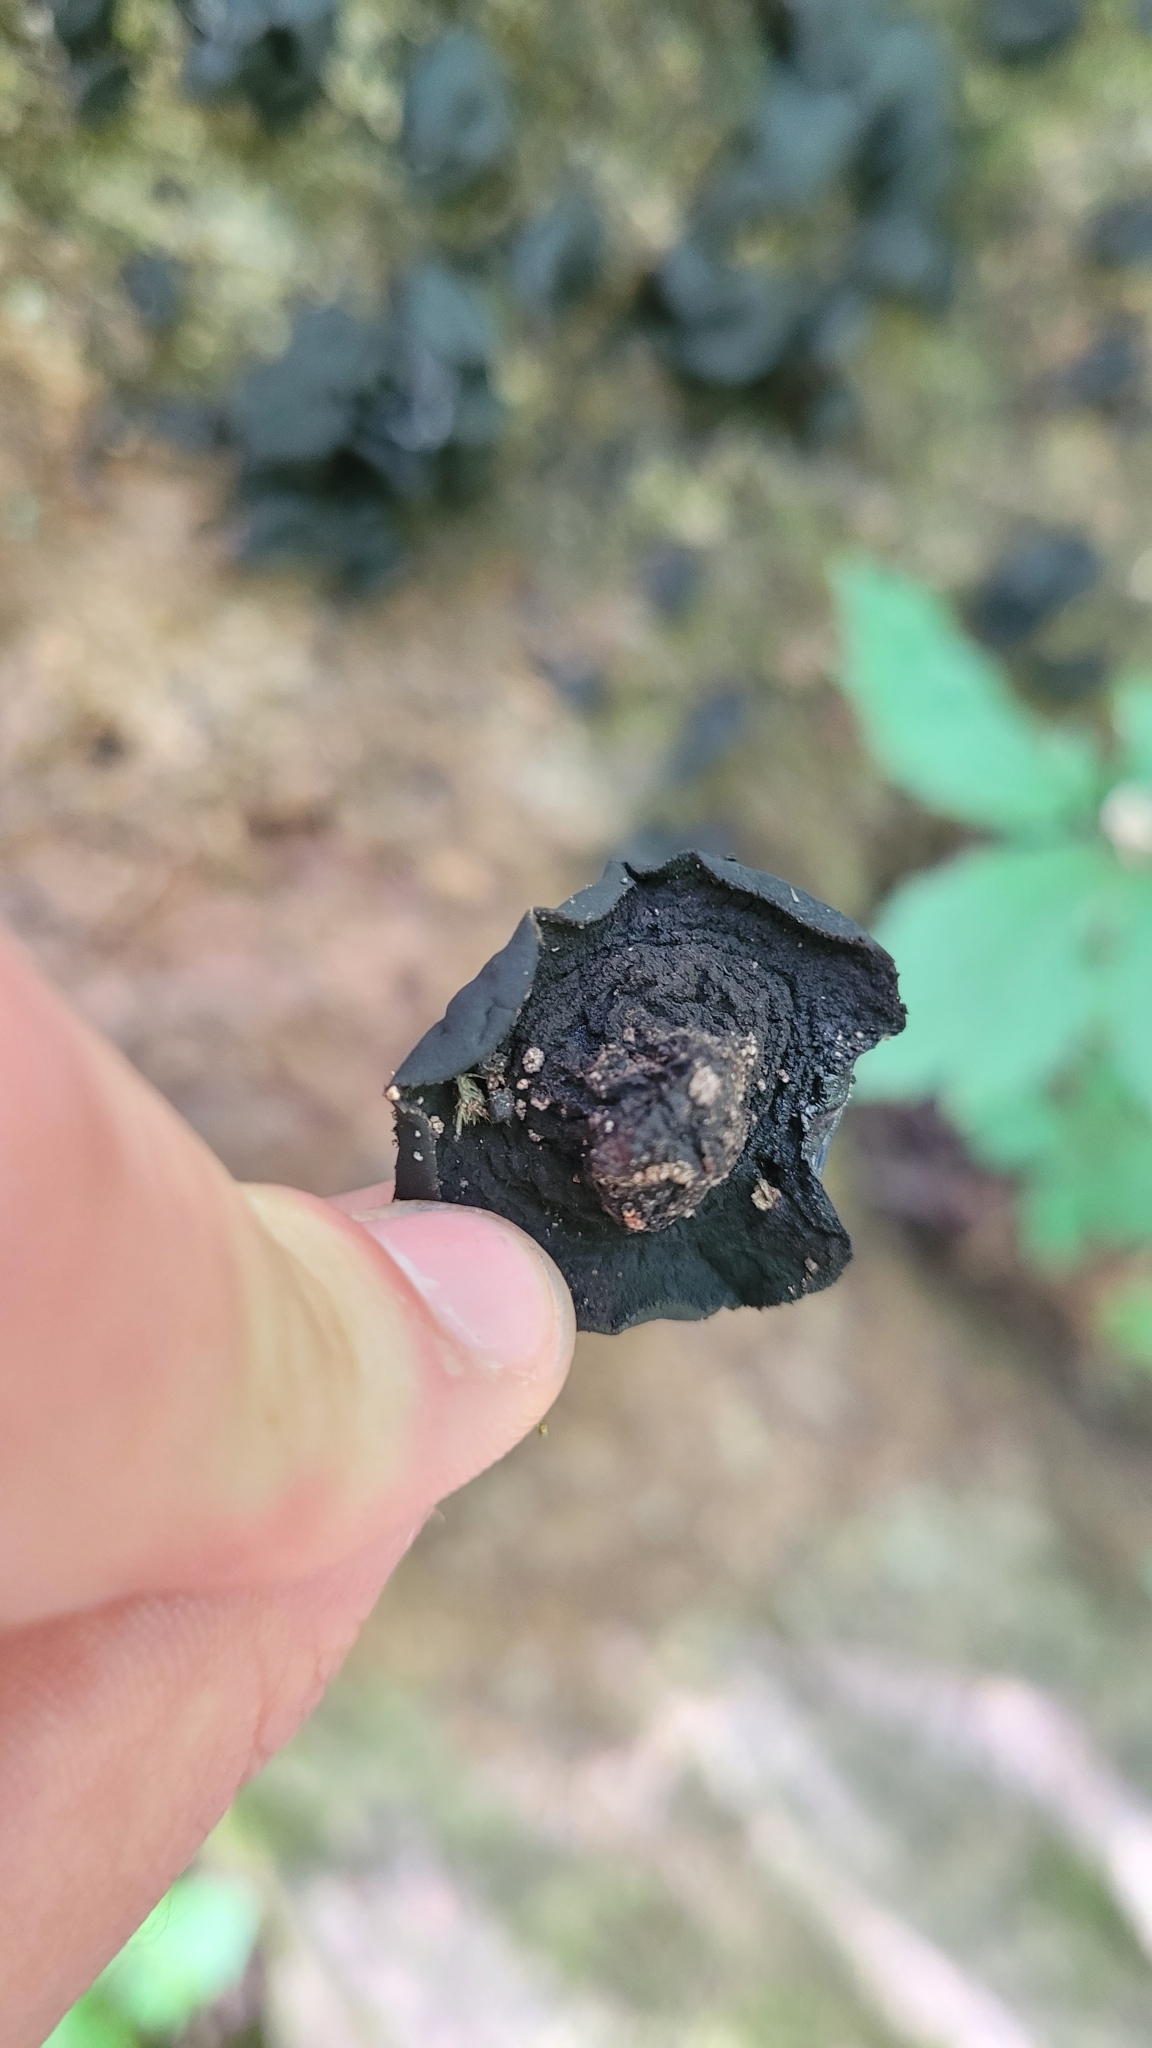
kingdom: Fungi
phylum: Ascomycota
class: Leotiomycetes
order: Phacidiales
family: Phacidiaceae
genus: Bulgaria
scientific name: Bulgaria inquinans
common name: Black bulgar
